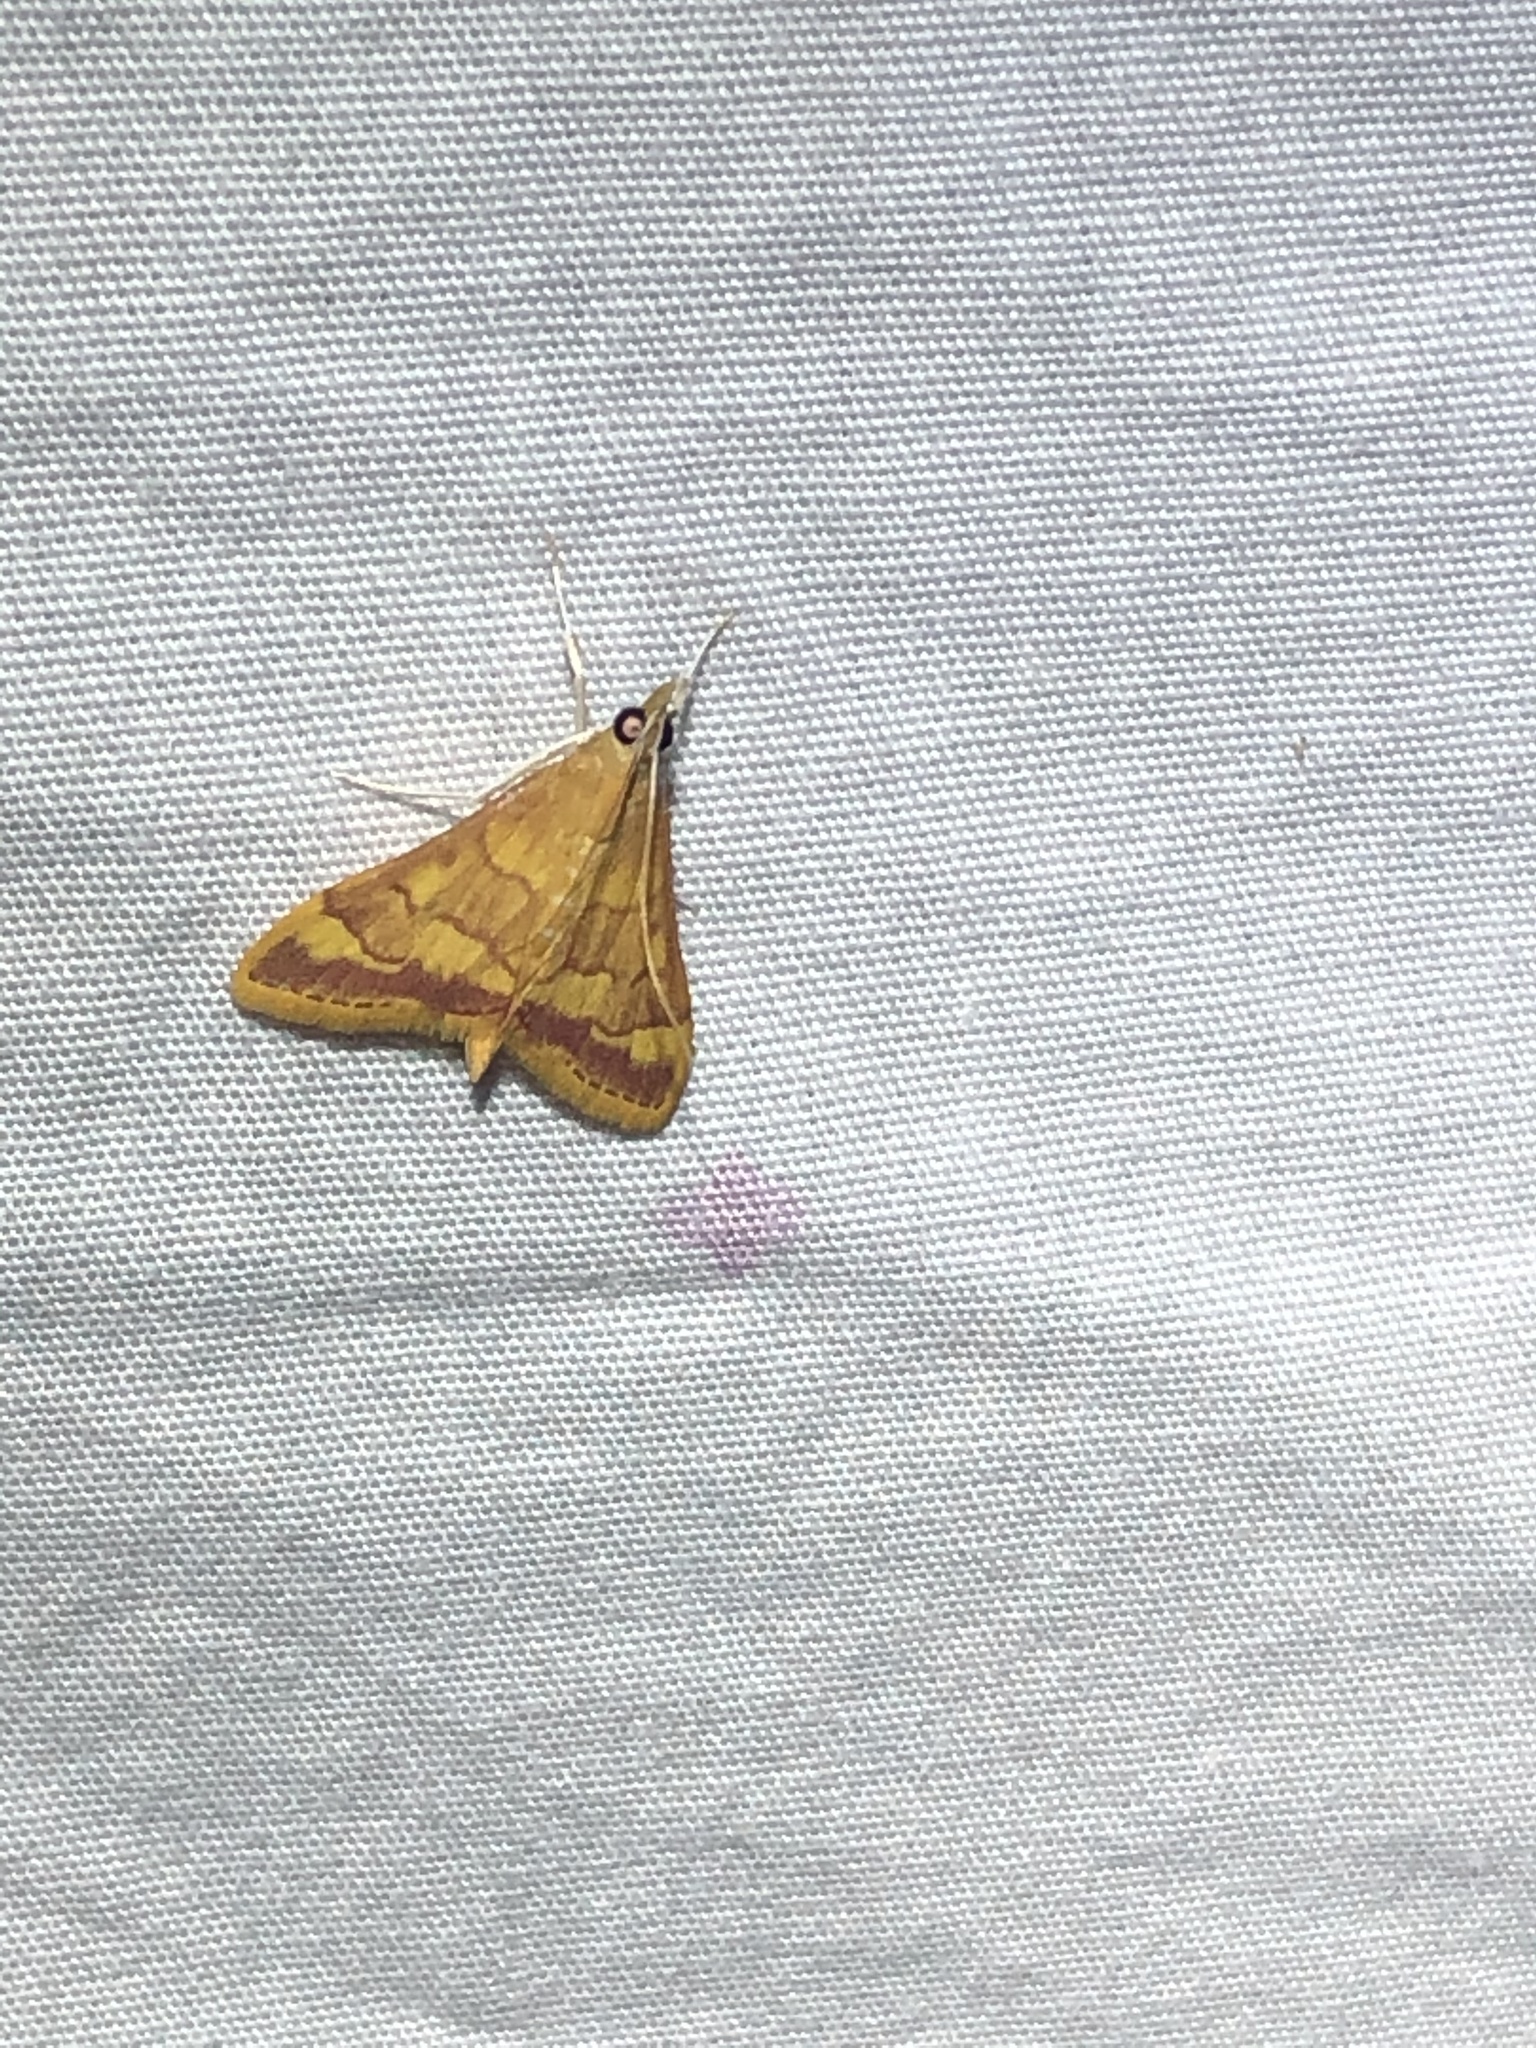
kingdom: Animalia
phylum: Arthropoda
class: Insecta
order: Lepidoptera
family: Crambidae
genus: Pyrausta
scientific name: Pyrausta pseudonythesalis
